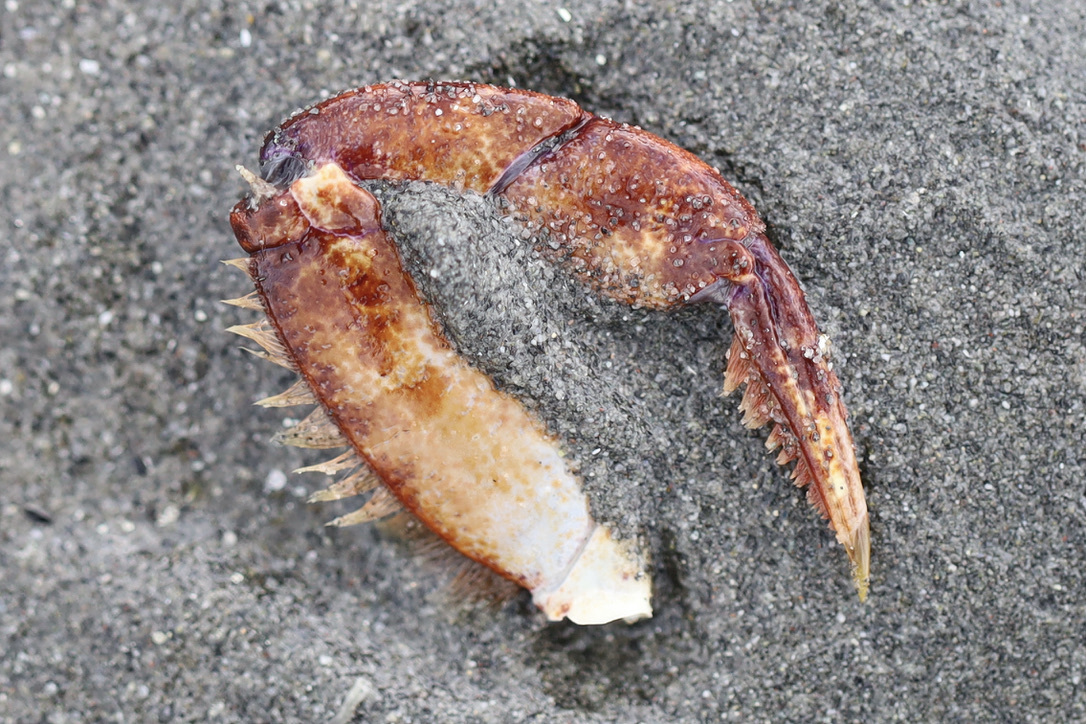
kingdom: Animalia
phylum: Arthropoda
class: Malacostraca
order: Decapoda
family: Cancridae
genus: Cancer
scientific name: Cancer productus
